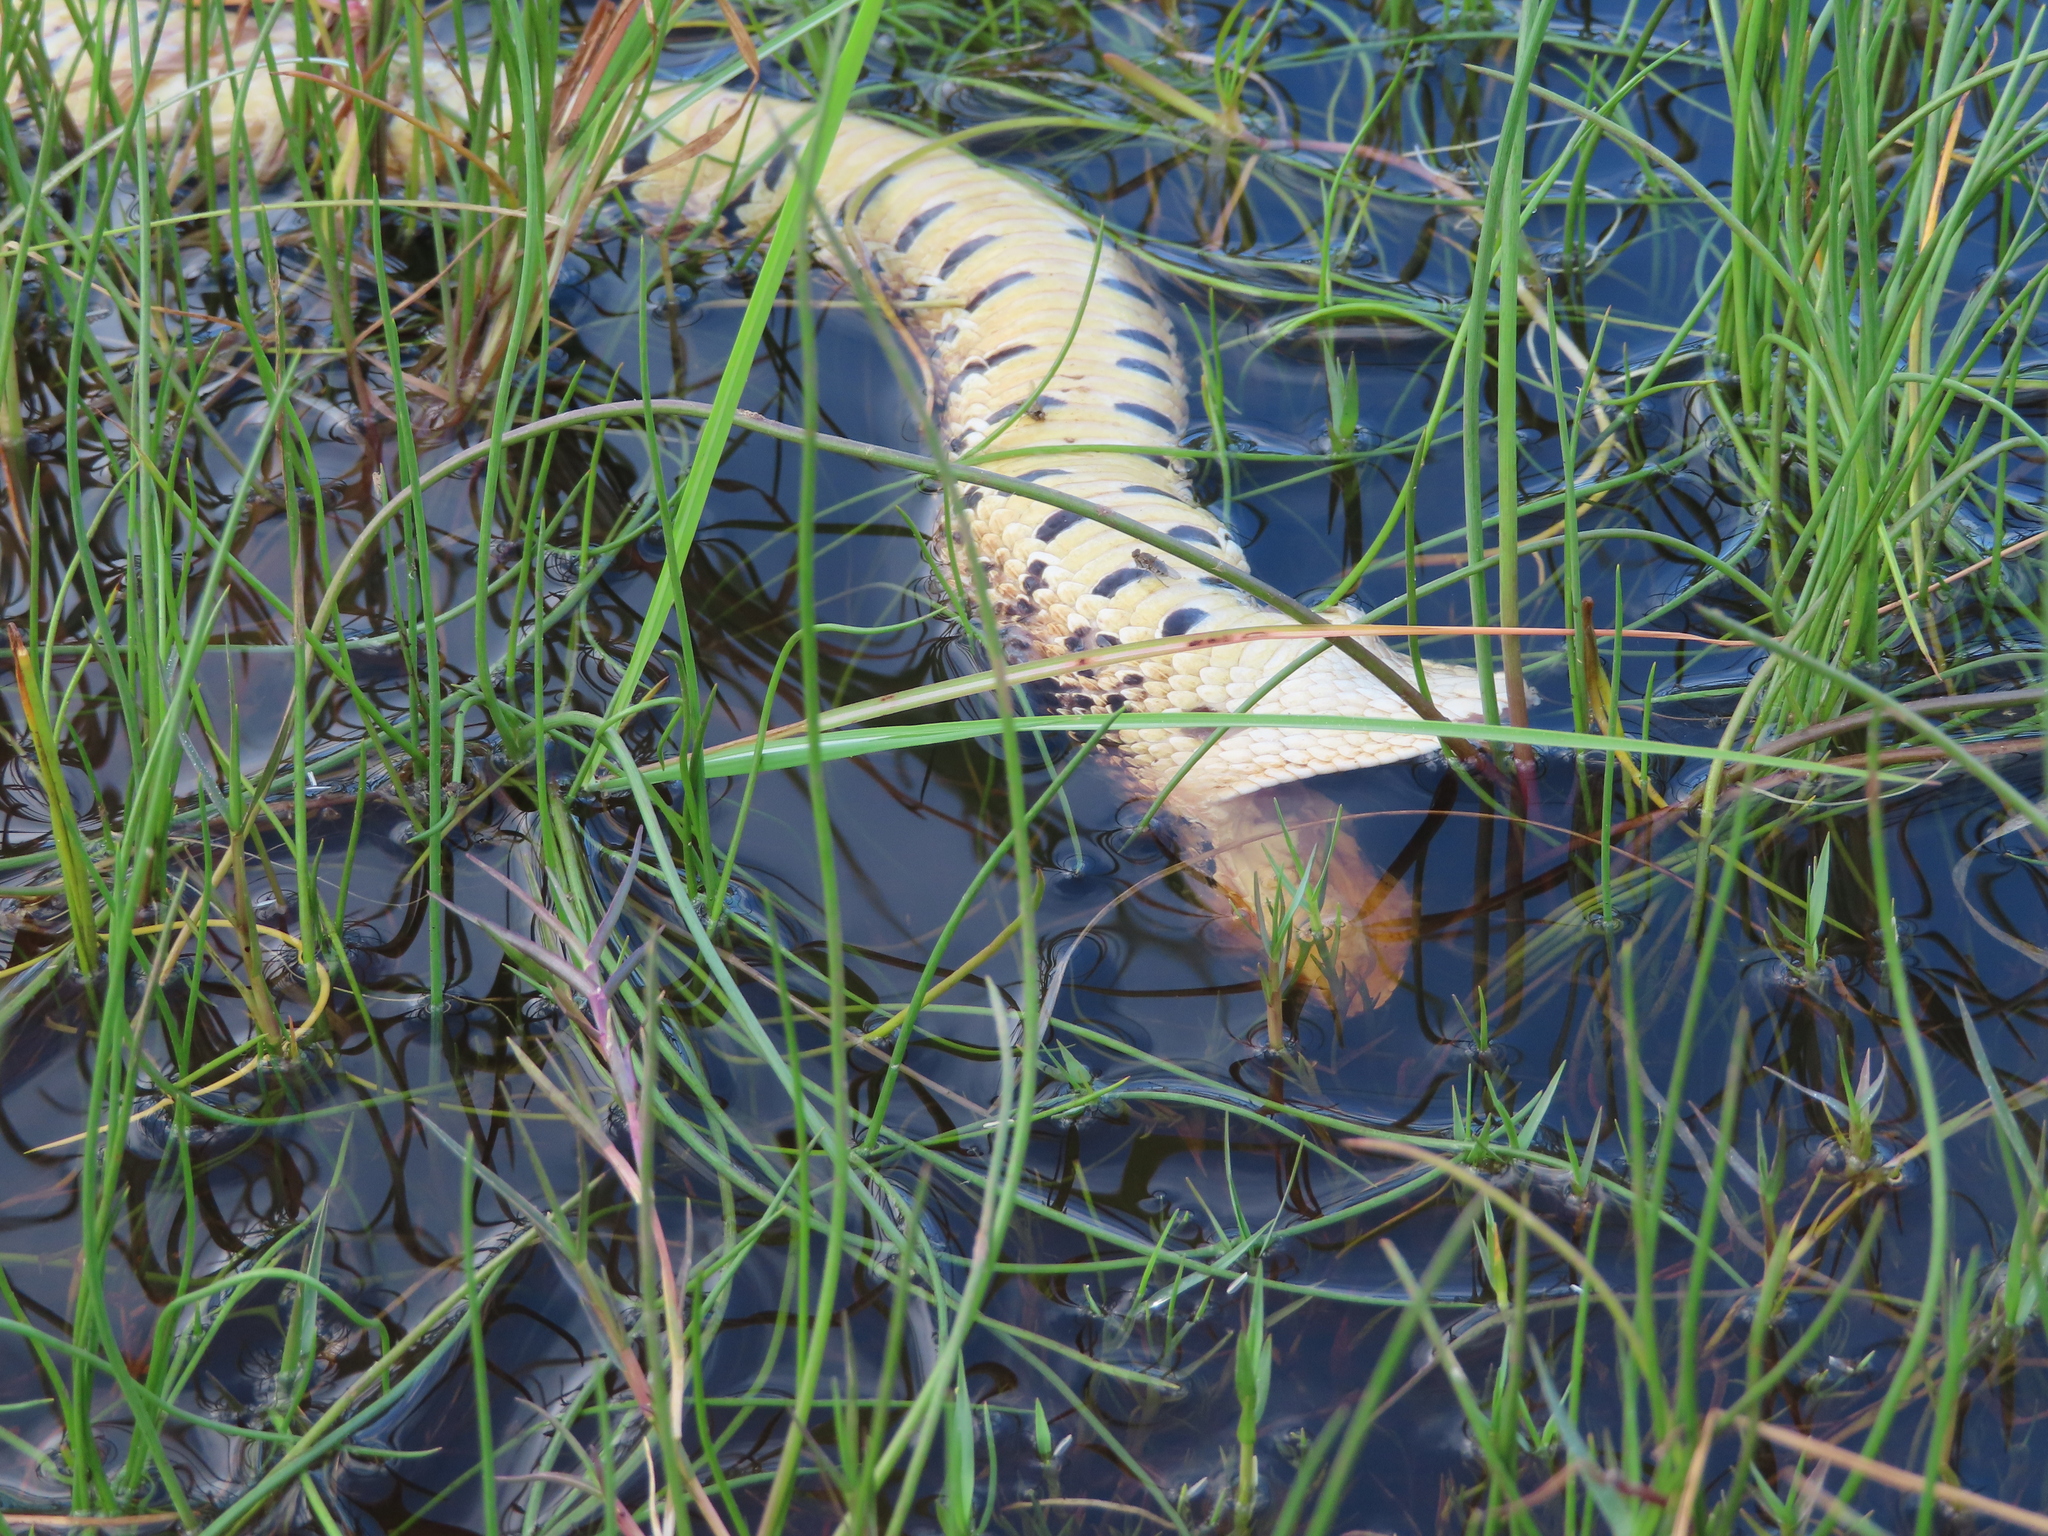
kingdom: Animalia
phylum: Chordata
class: Squamata
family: Viperidae
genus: Bitis
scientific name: Bitis arietans
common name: Puff adder
